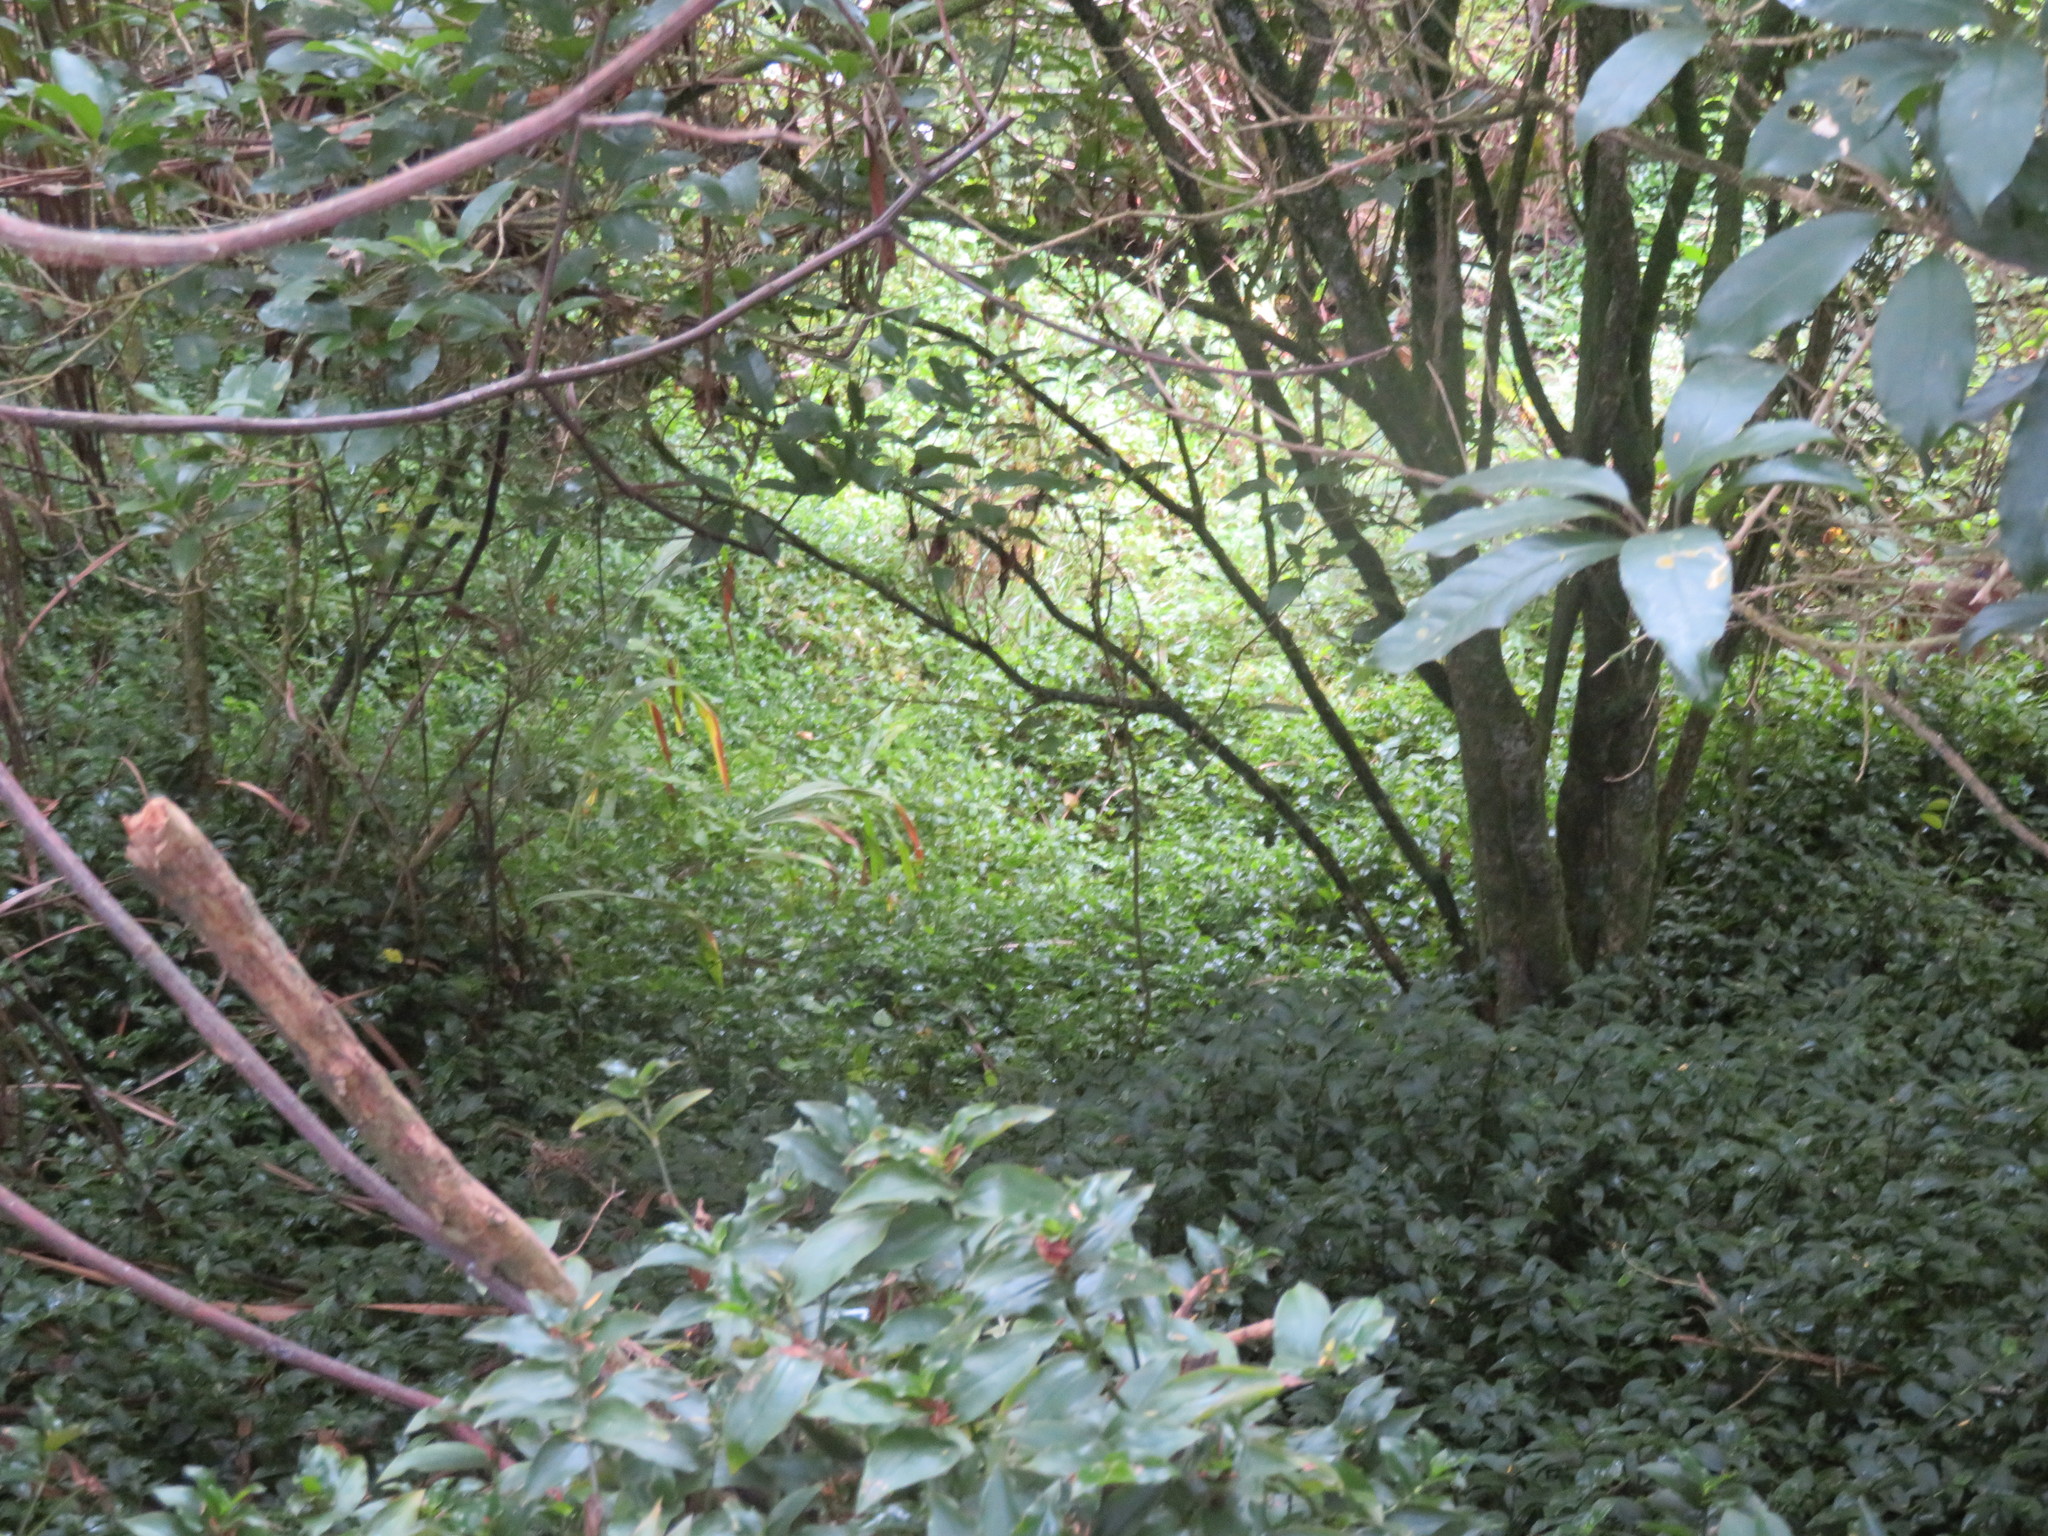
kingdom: Plantae
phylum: Tracheophyta
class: Liliopsida
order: Asparagales
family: Iridaceae
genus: Crocosmia
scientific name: Crocosmia crocosmiiflora
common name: Montbretia
